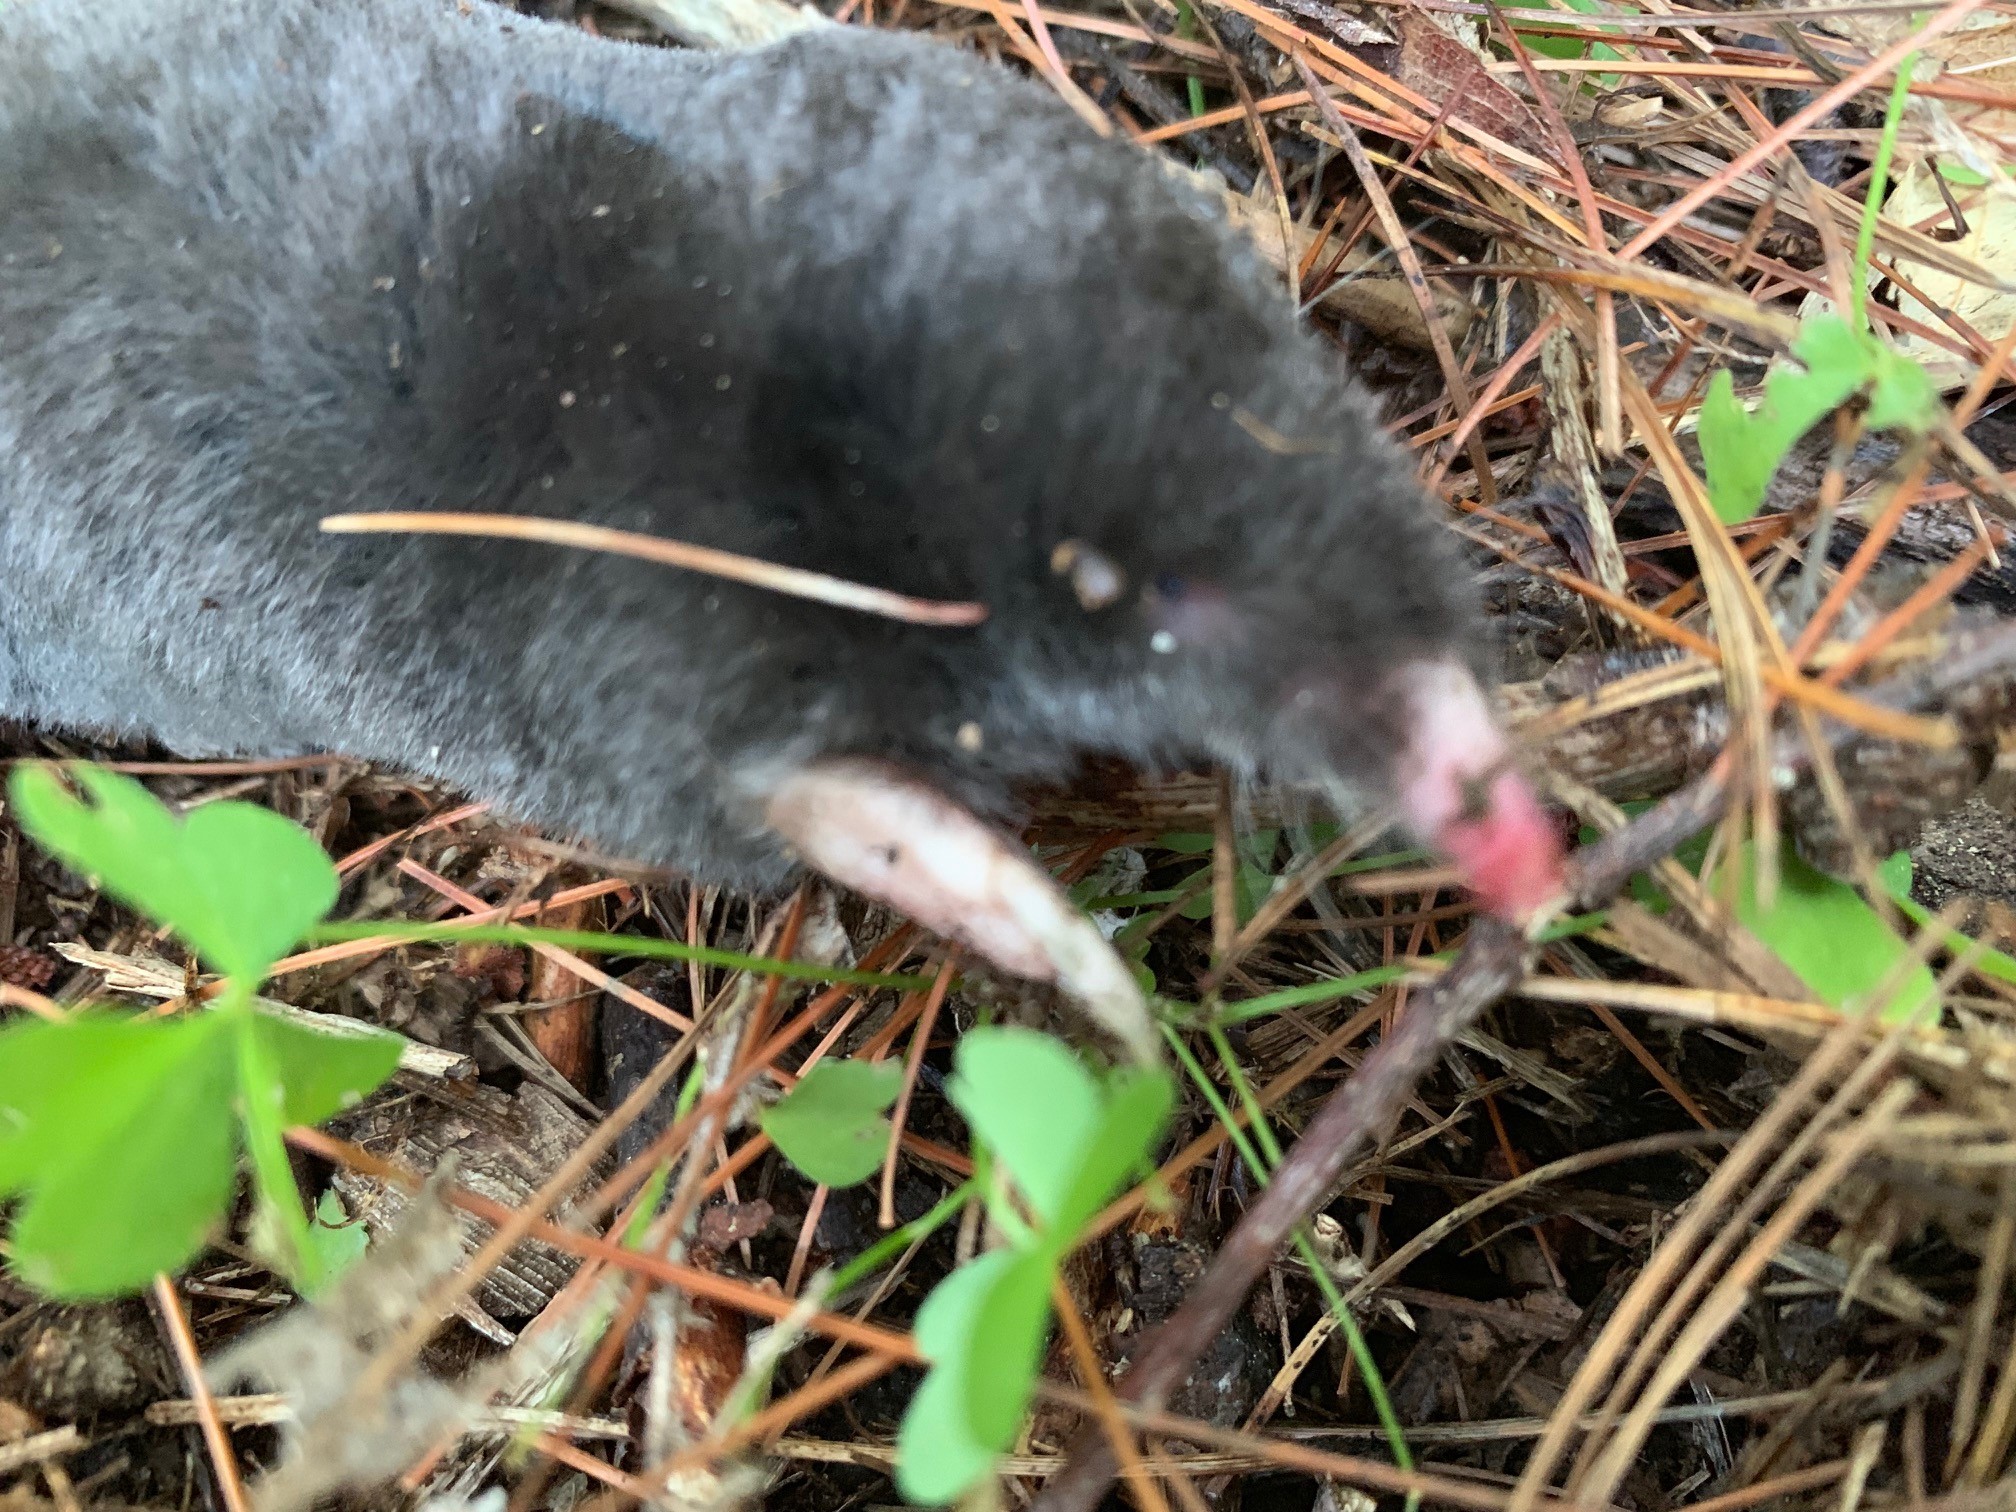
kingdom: Animalia
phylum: Chordata
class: Mammalia
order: Soricomorpha
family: Talpidae
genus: Parascalops
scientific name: Parascalops breweri
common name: Hairy-tailed mole
